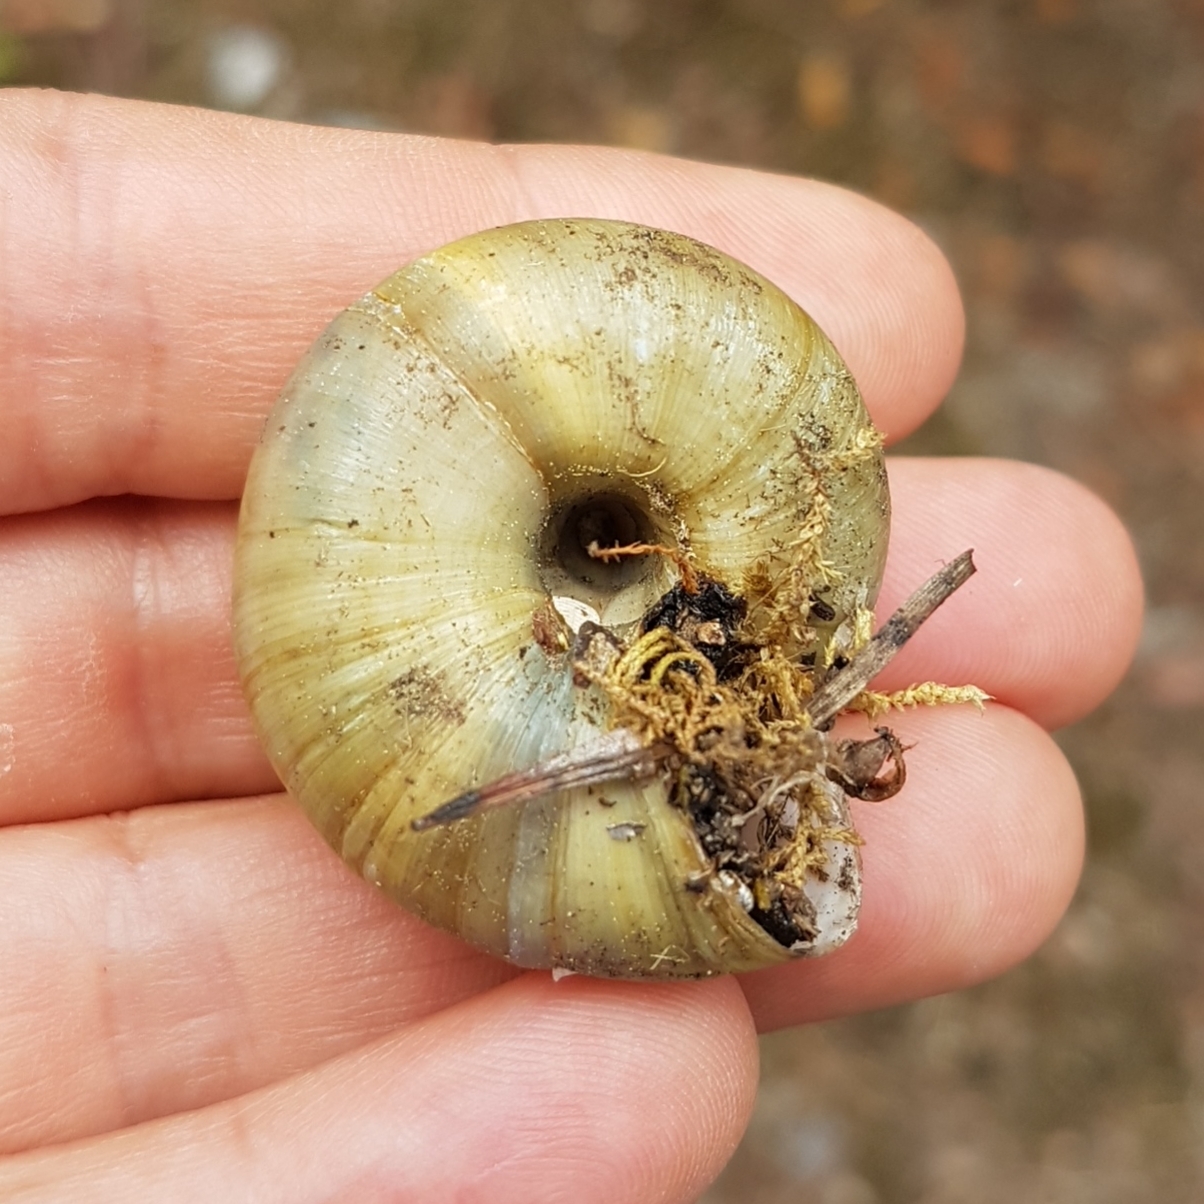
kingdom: Animalia
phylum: Mollusca
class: Gastropoda
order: Stylommatophora
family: Zonitidae
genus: Zonites
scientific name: Zonites algirus
